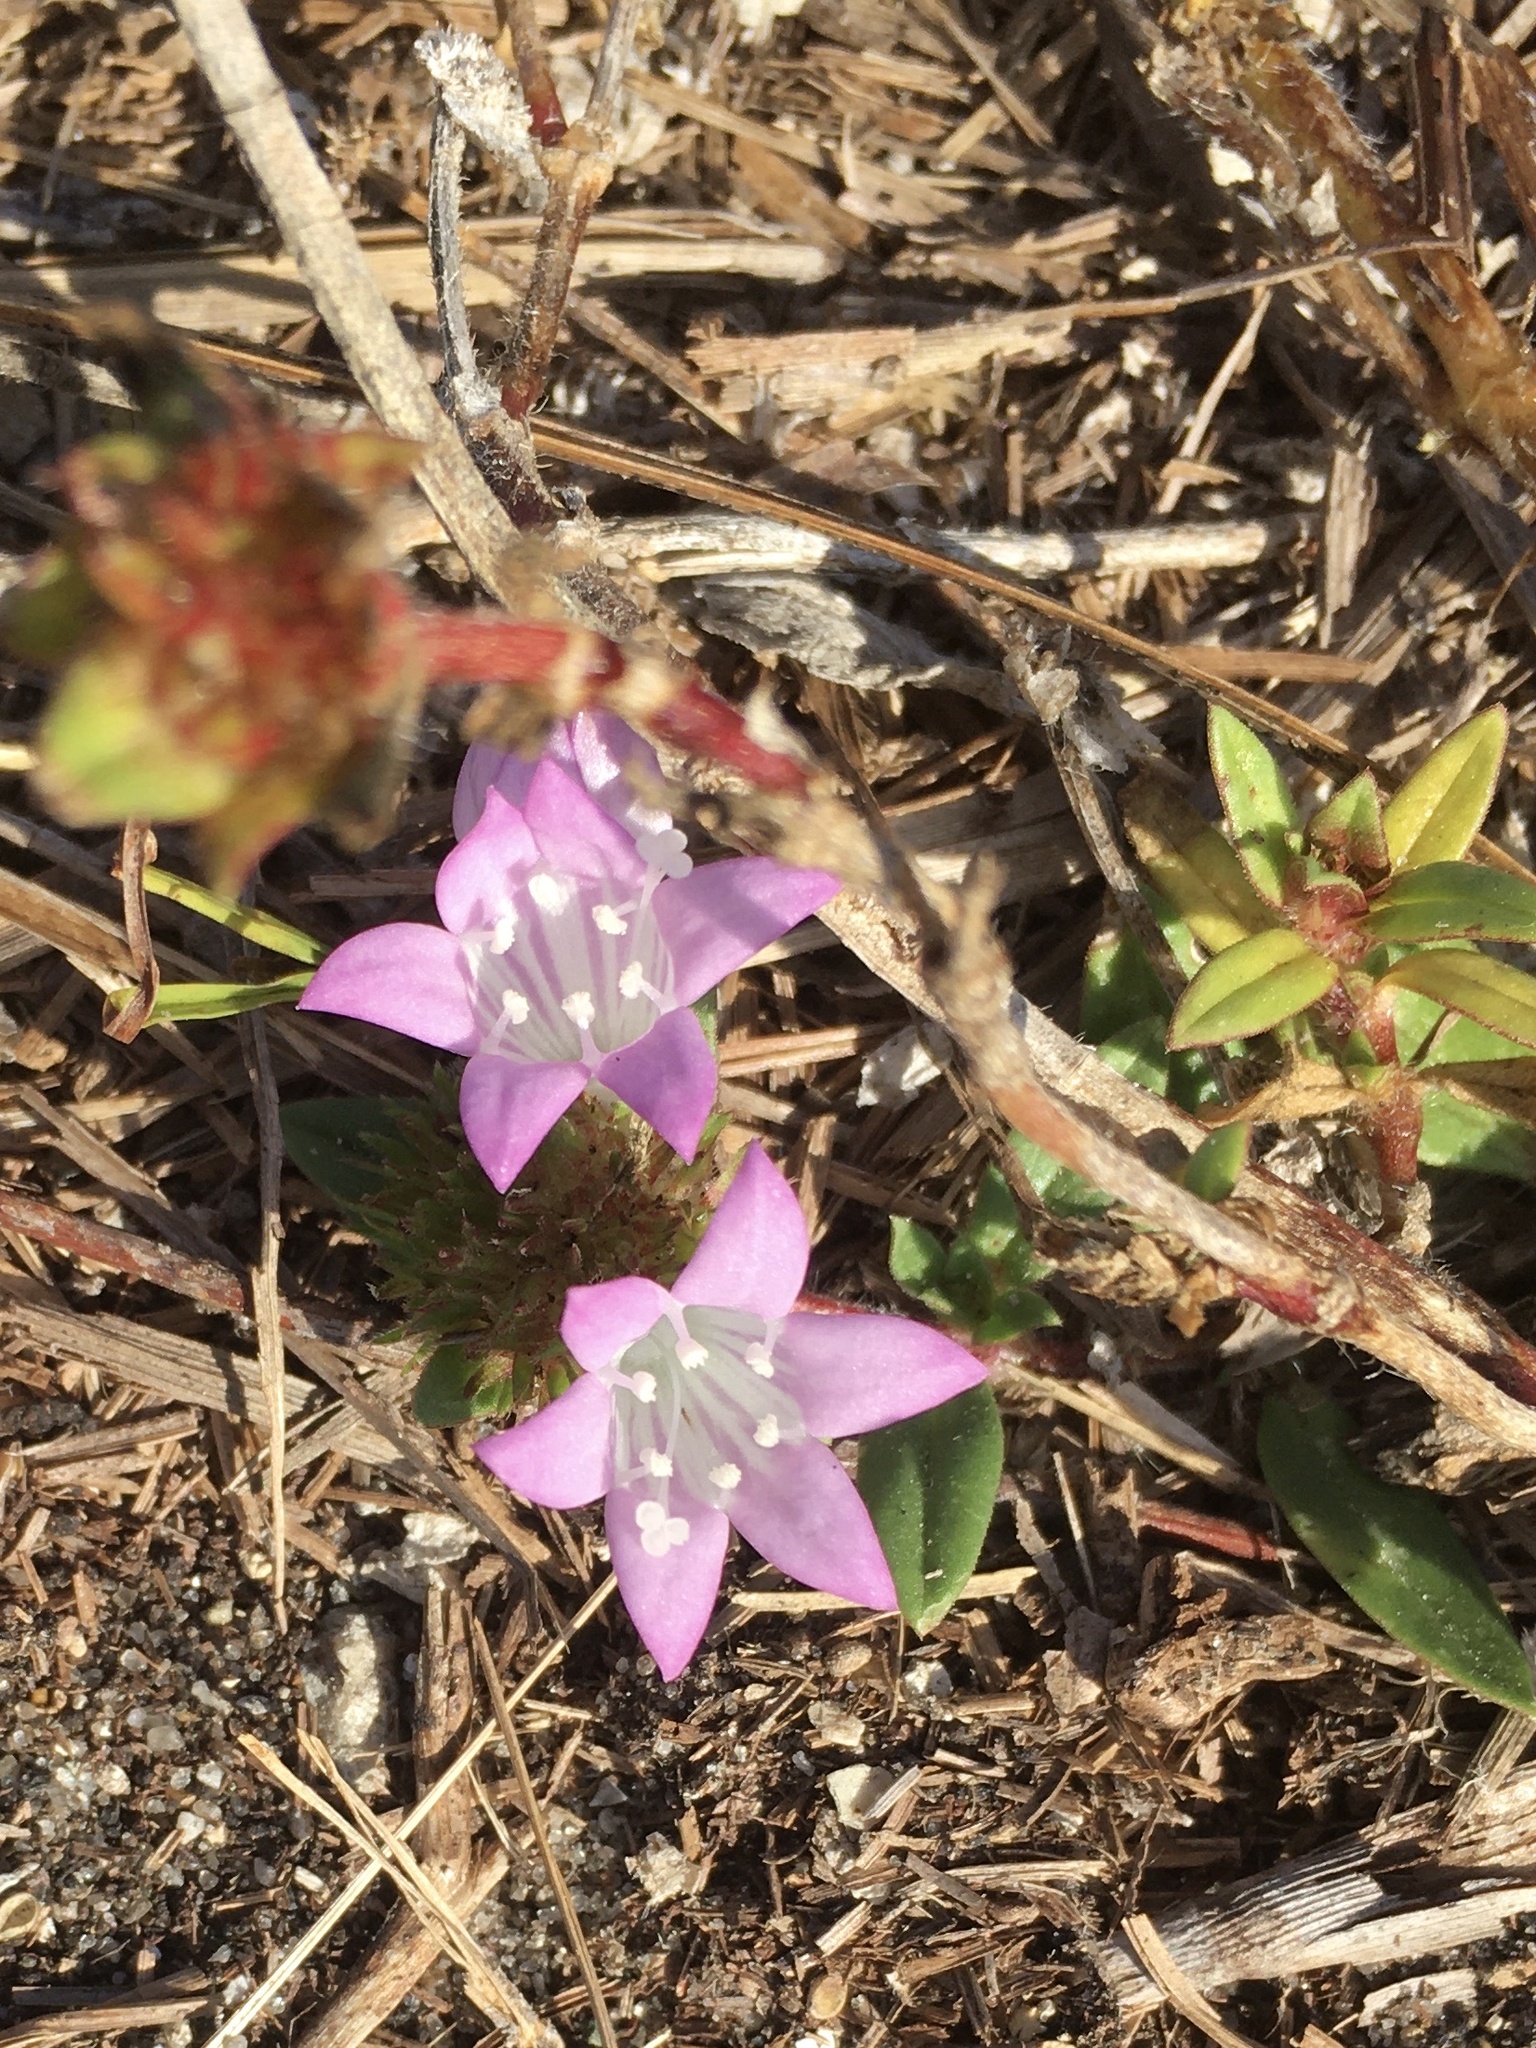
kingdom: Plantae
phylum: Tracheophyta
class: Magnoliopsida
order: Gentianales
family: Rubiaceae
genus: Richardia
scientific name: Richardia grandiflora
